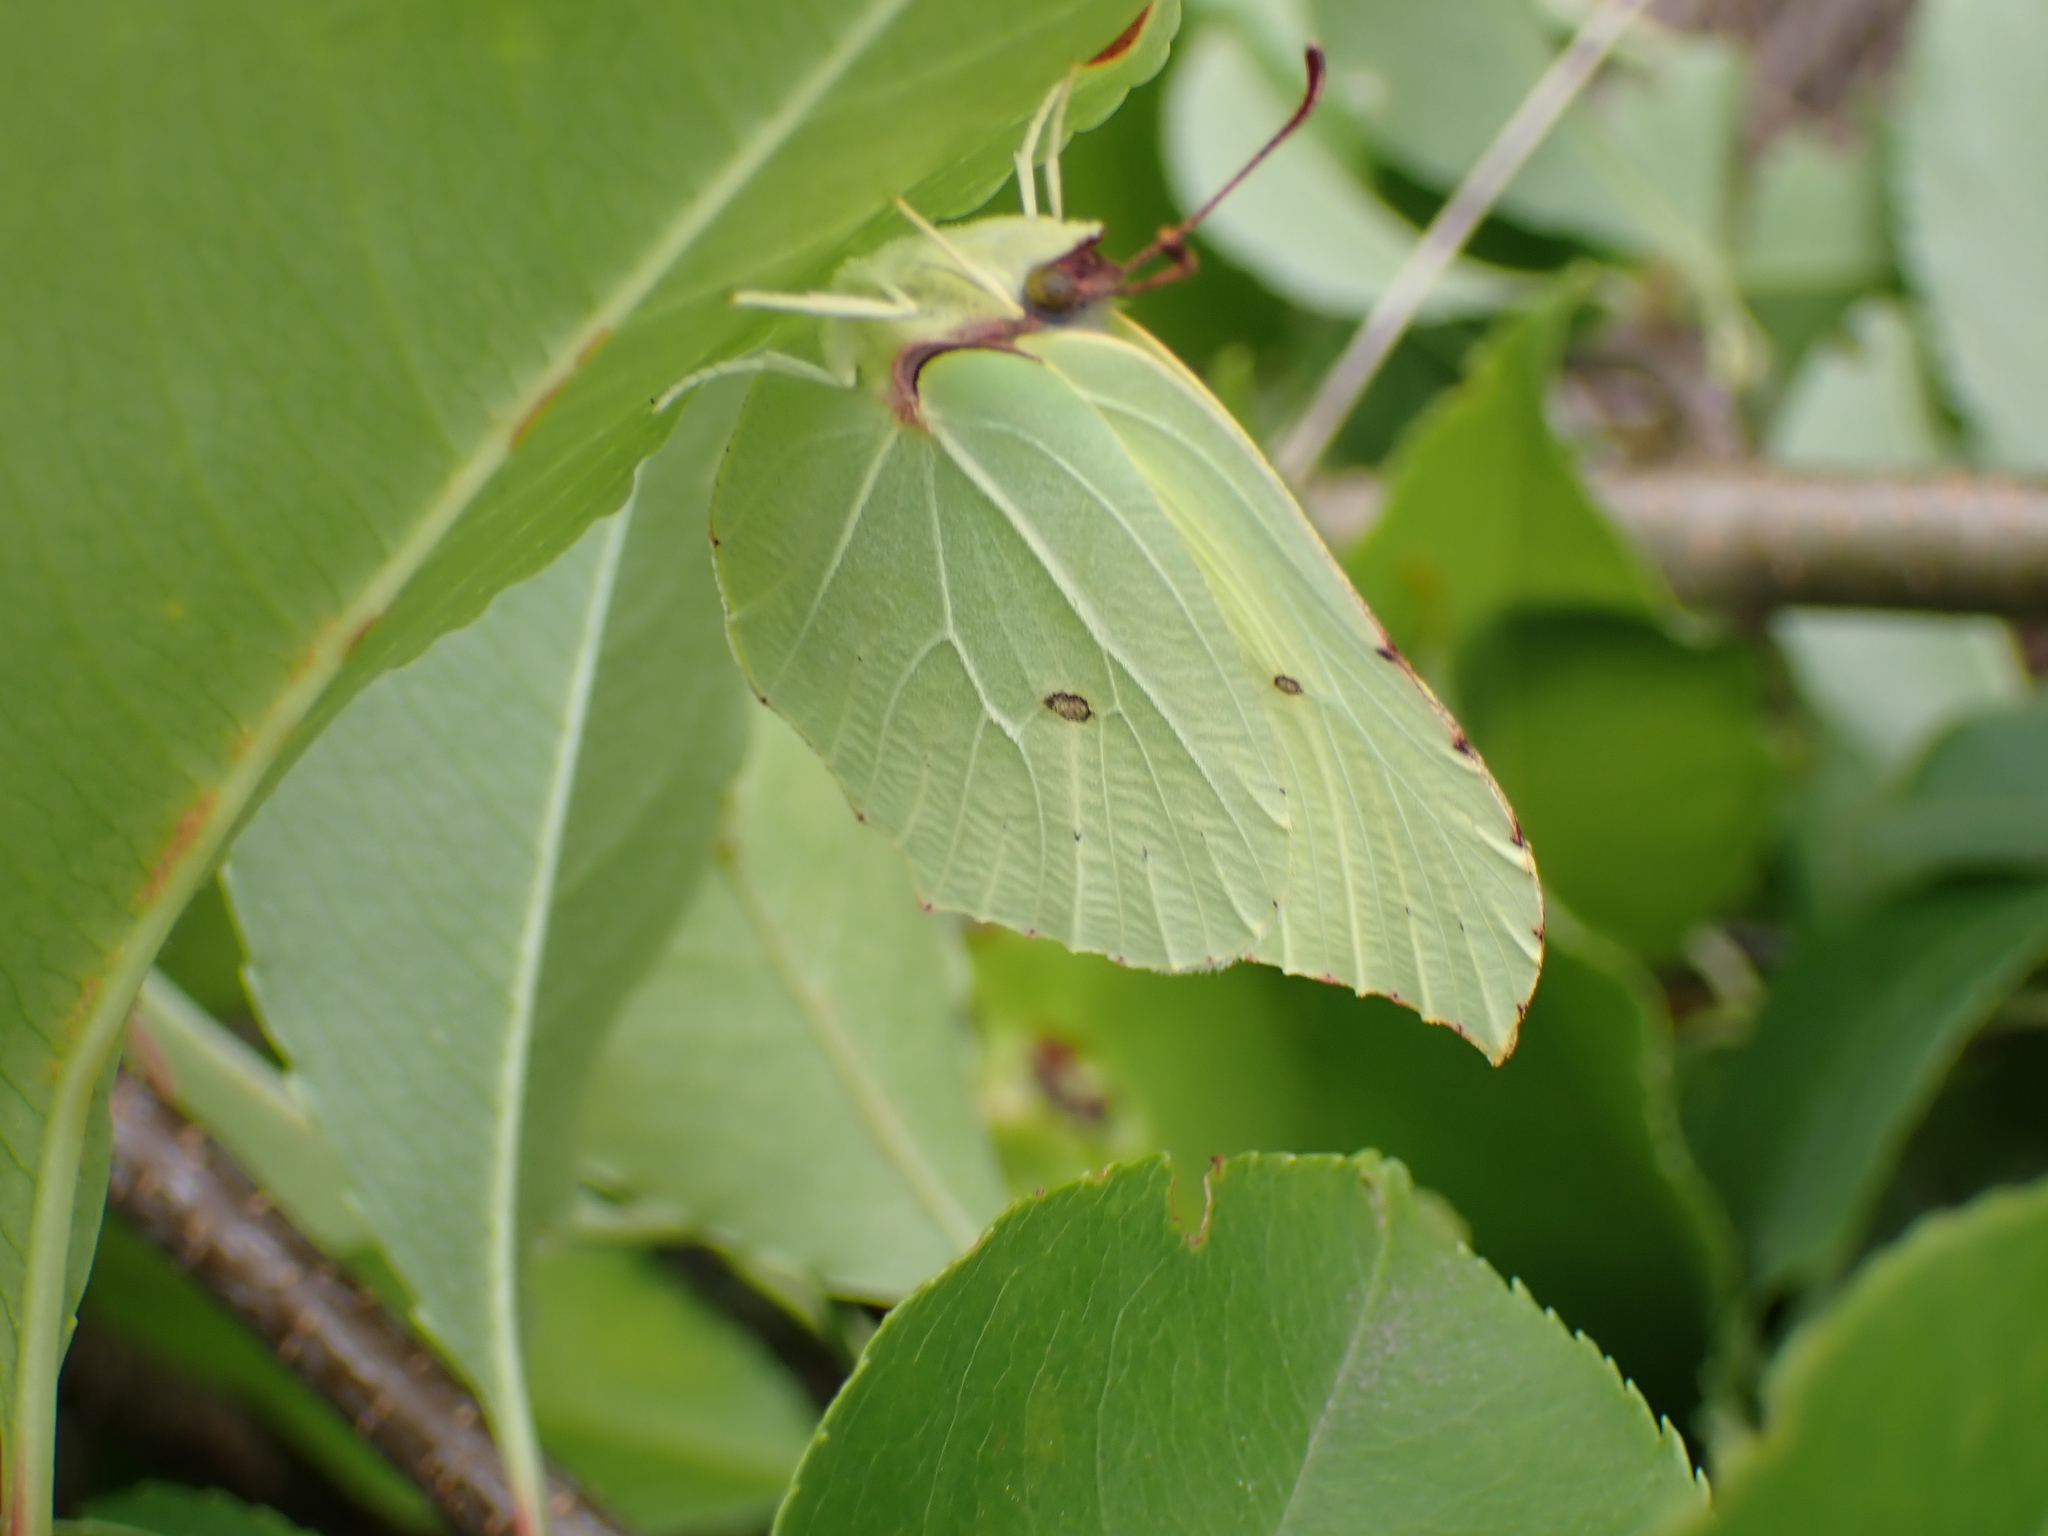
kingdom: Animalia
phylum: Arthropoda
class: Insecta
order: Lepidoptera
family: Pieridae
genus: Gonepteryx
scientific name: Gonepteryx rhamni
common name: Brimstone
